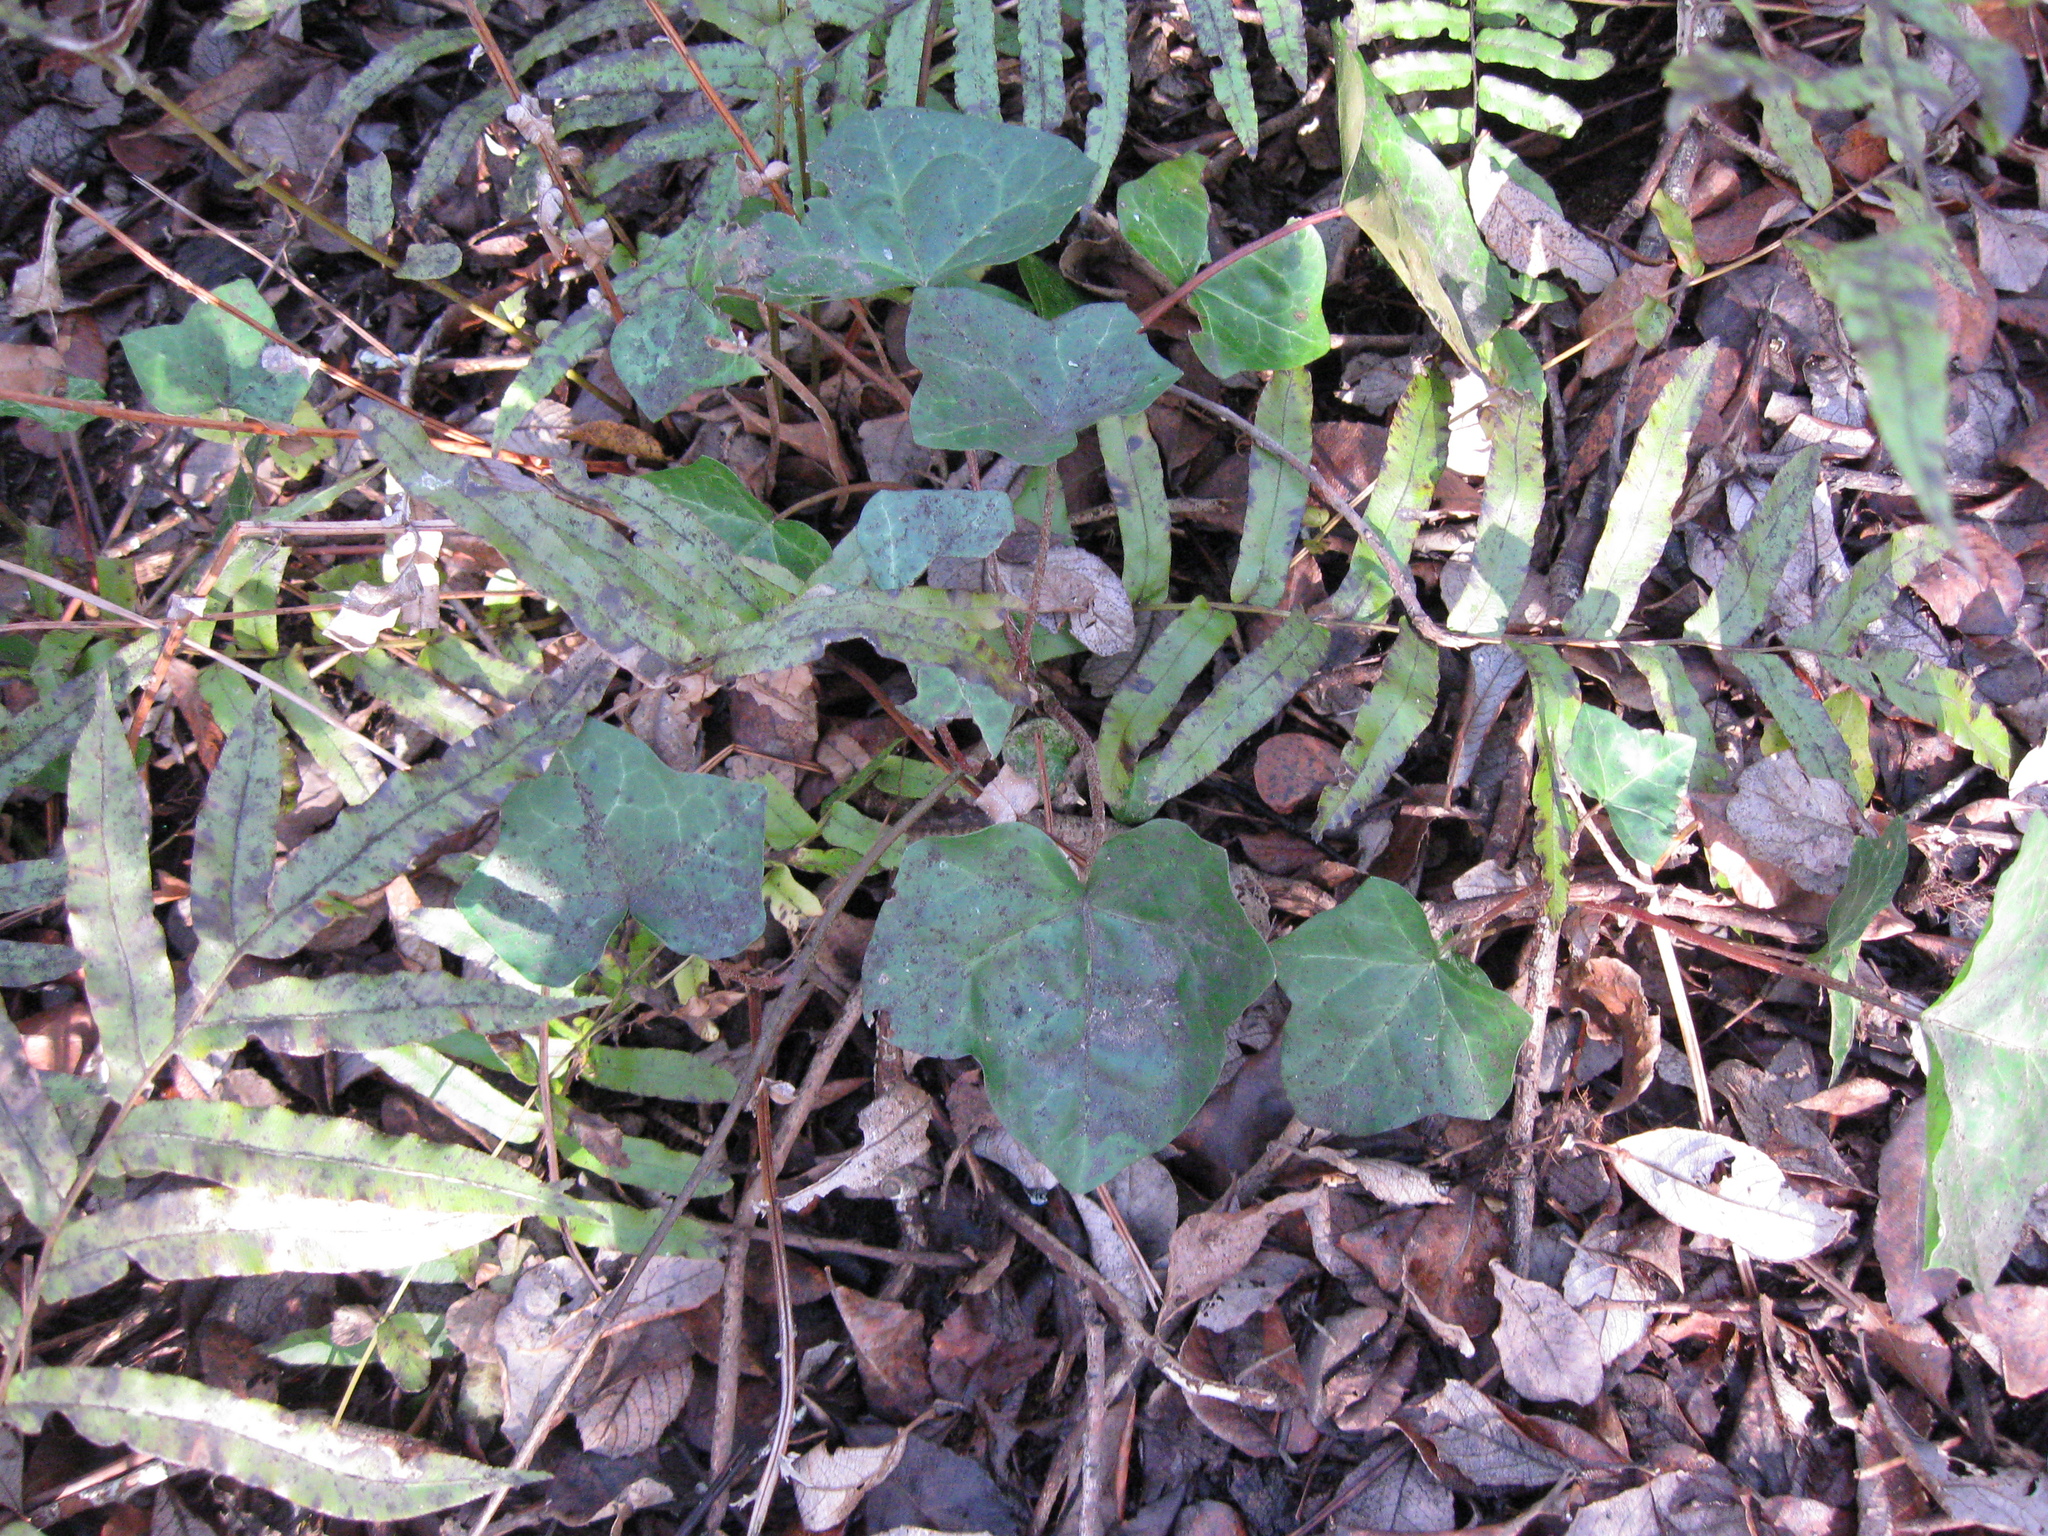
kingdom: Plantae
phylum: Tracheophyta
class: Magnoliopsida
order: Apiales
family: Araliaceae
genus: Hedera
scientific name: Hedera helix
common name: Ivy
